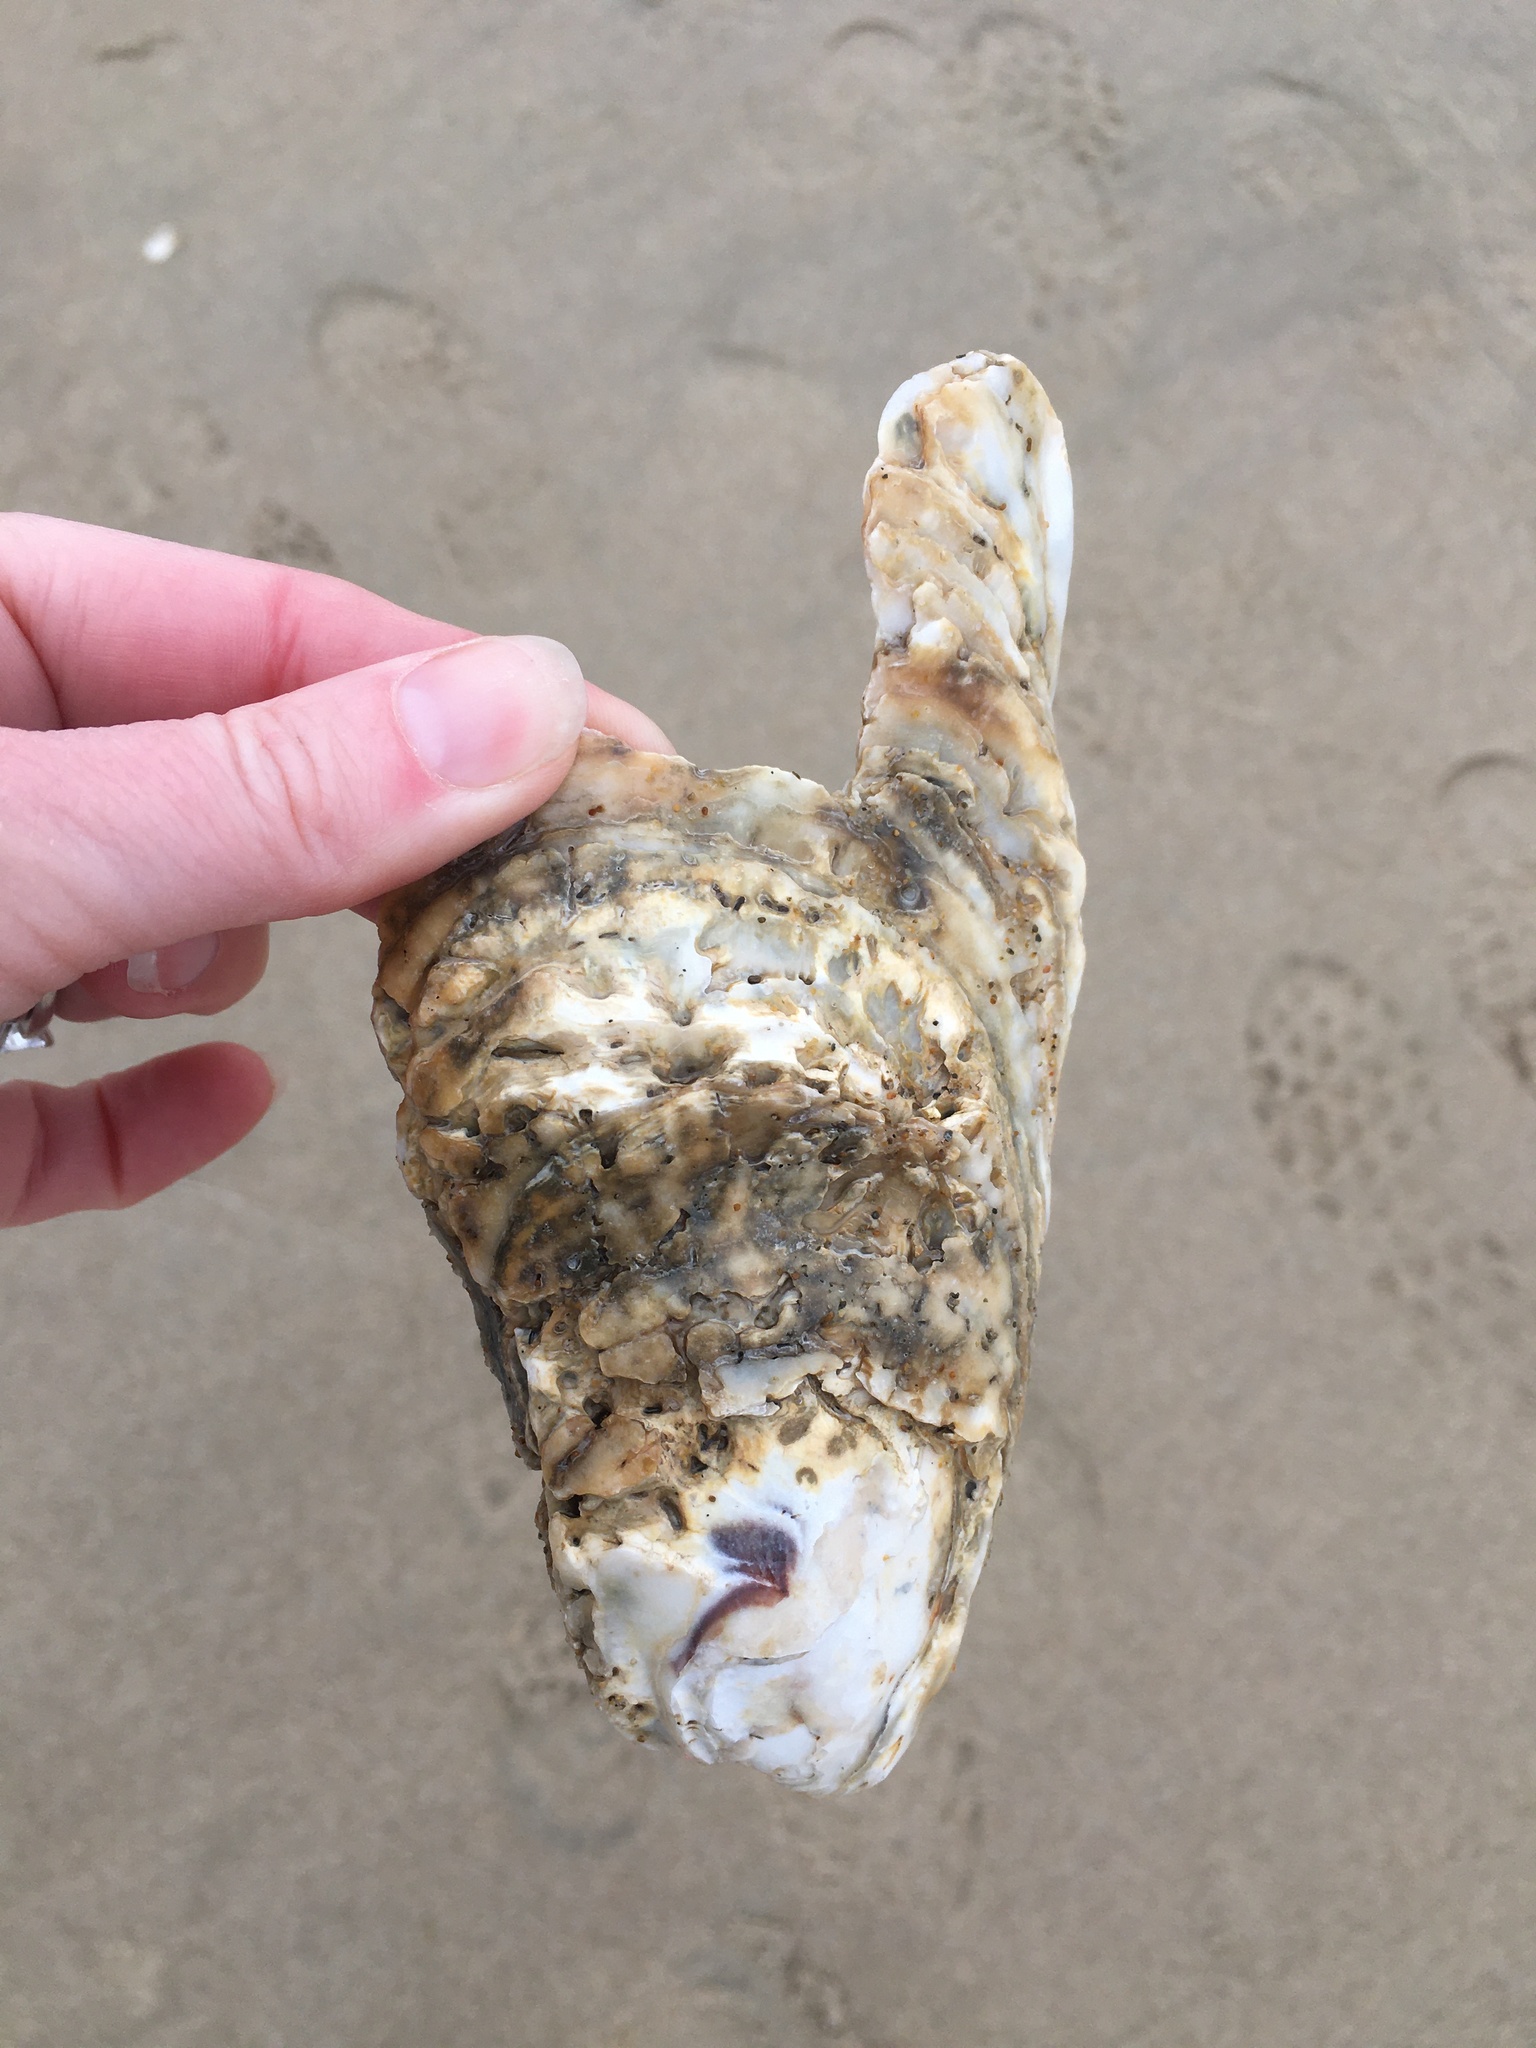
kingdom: Animalia
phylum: Mollusca
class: Bivalvia
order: Ostreida
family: Ostreidae
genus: Crassostrea
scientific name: Crassostrea virginica
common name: American oyster
